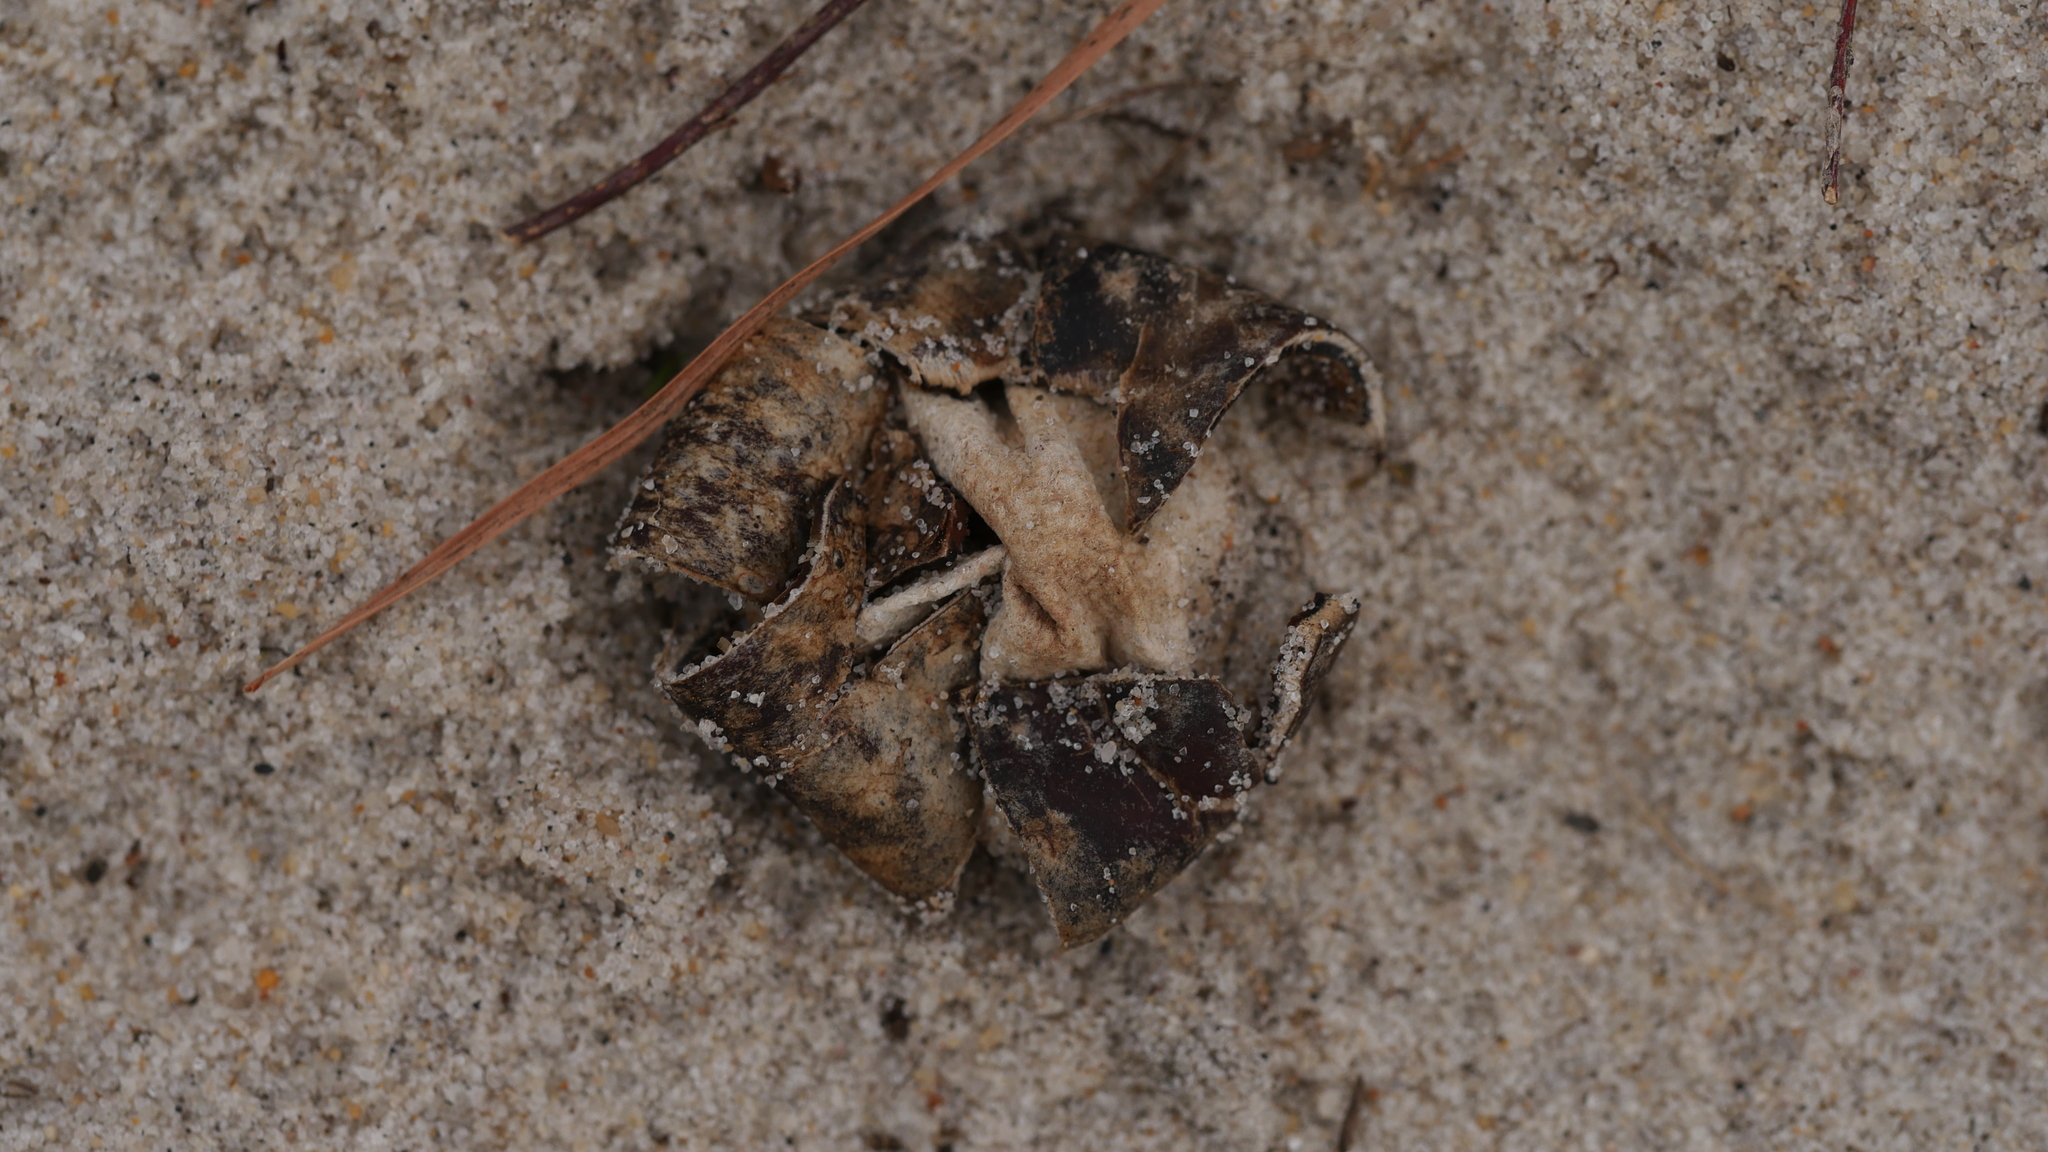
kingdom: Fungi
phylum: Basidiomycota
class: Agaricomycetes
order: Boletales
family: Diplocystidiaceae
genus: Astraeus
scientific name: Astraeus smithii
